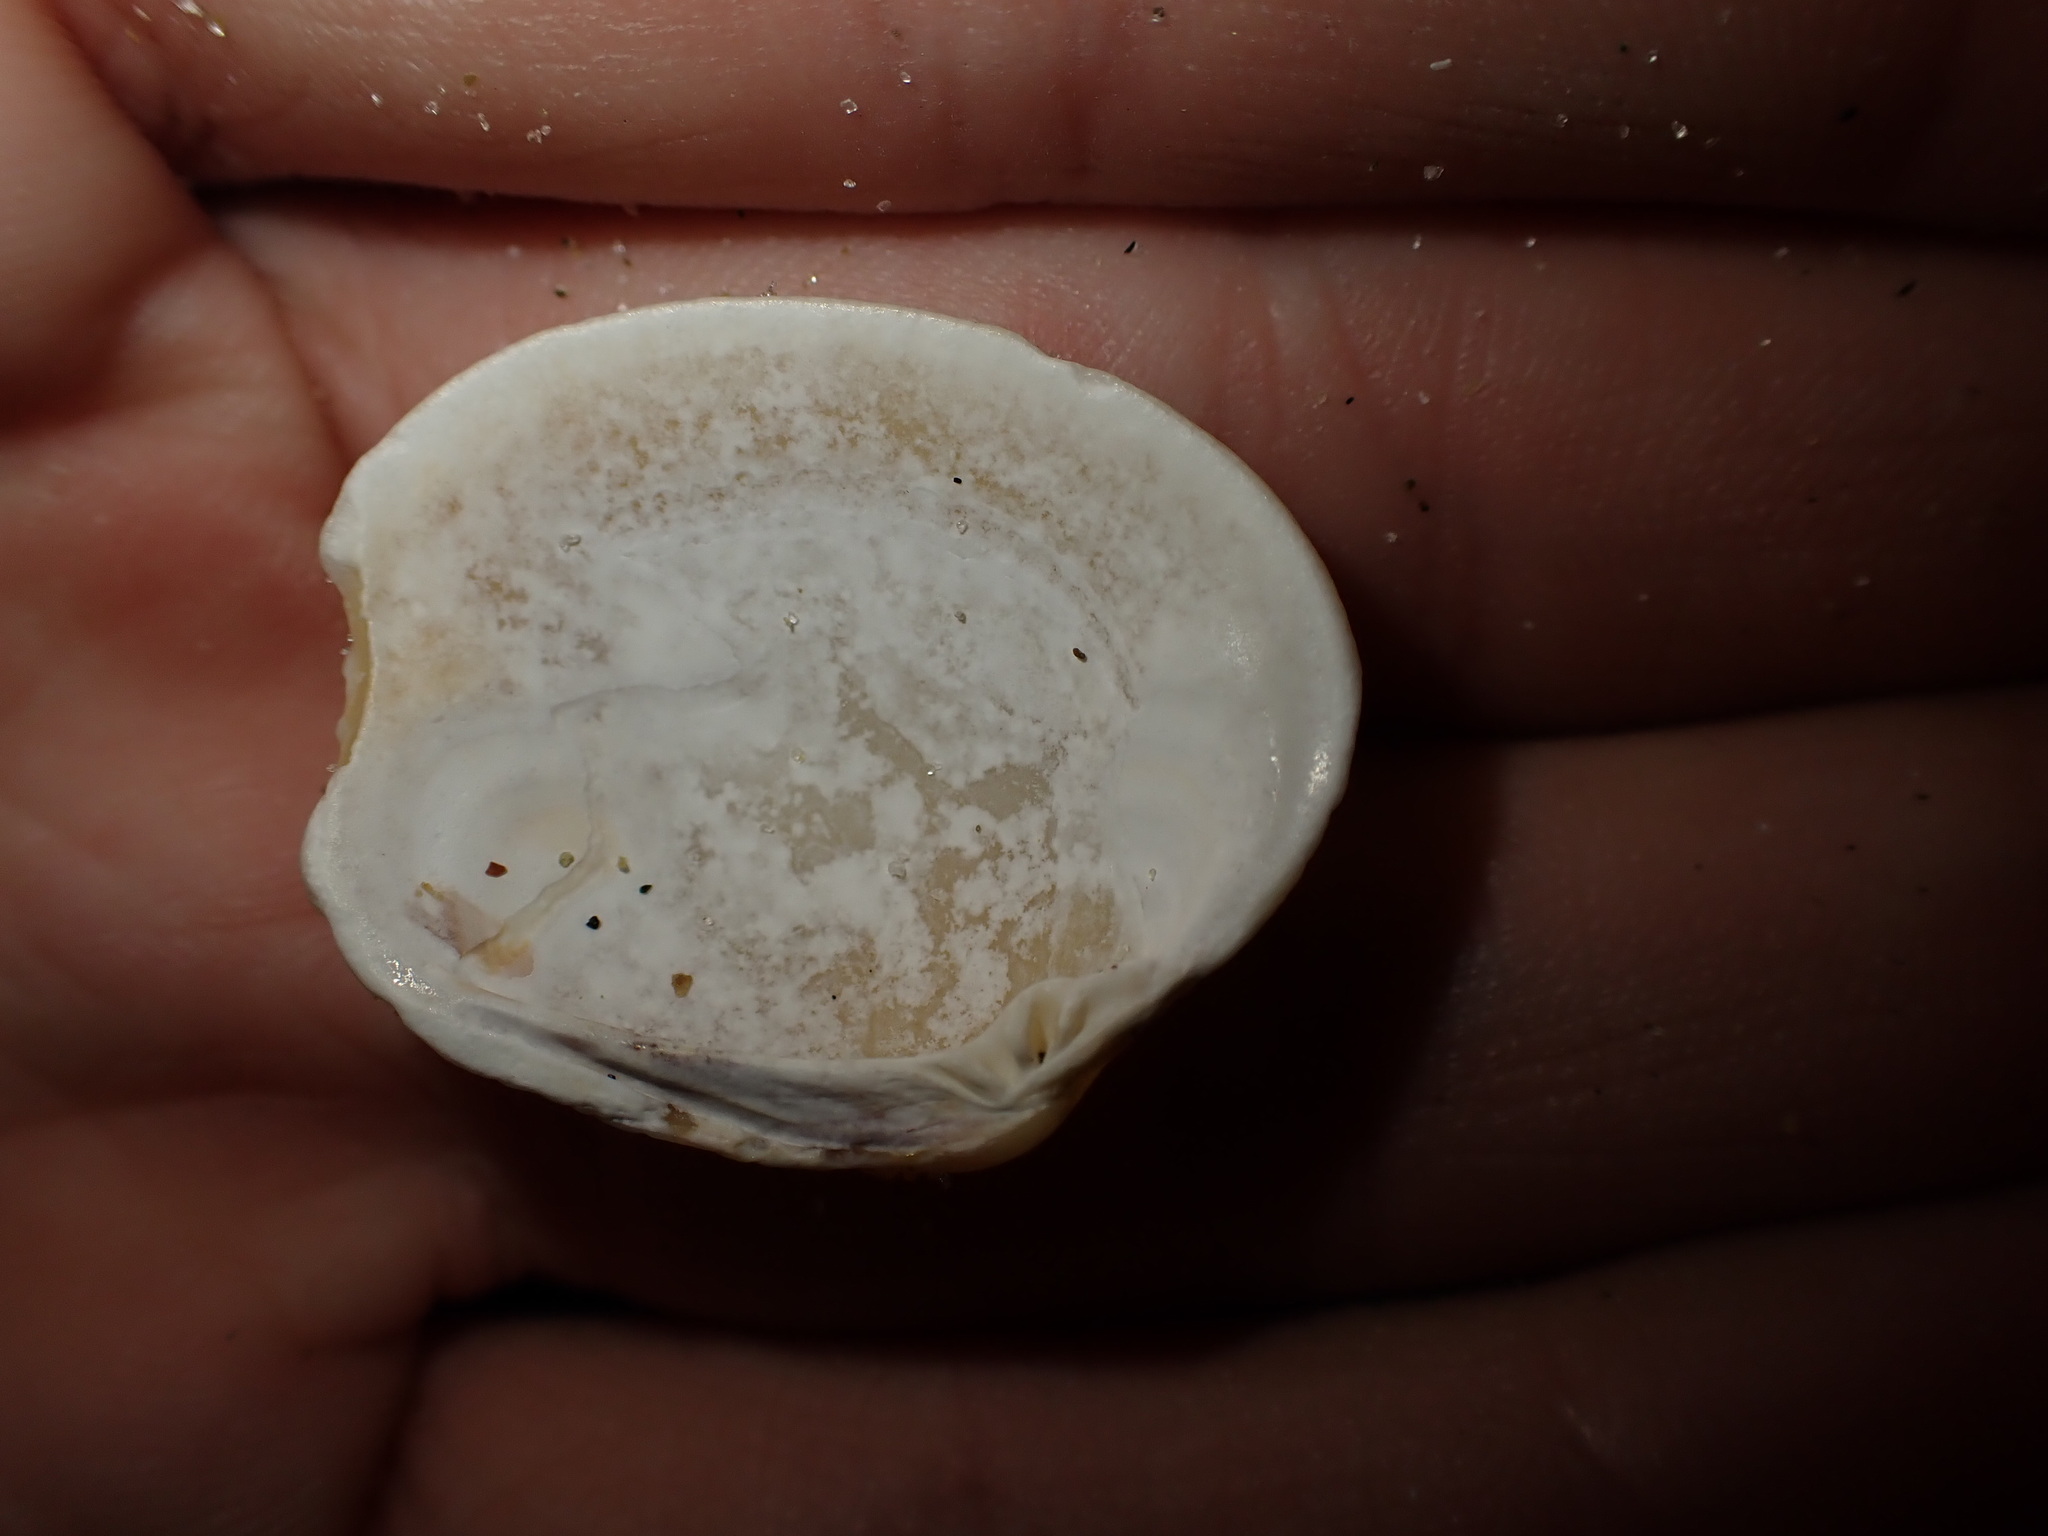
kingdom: Animalia
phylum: Mollusca
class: Bivalvia
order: Venerida
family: Veneridae
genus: Leukoma
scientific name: Leukoma crassicosta
